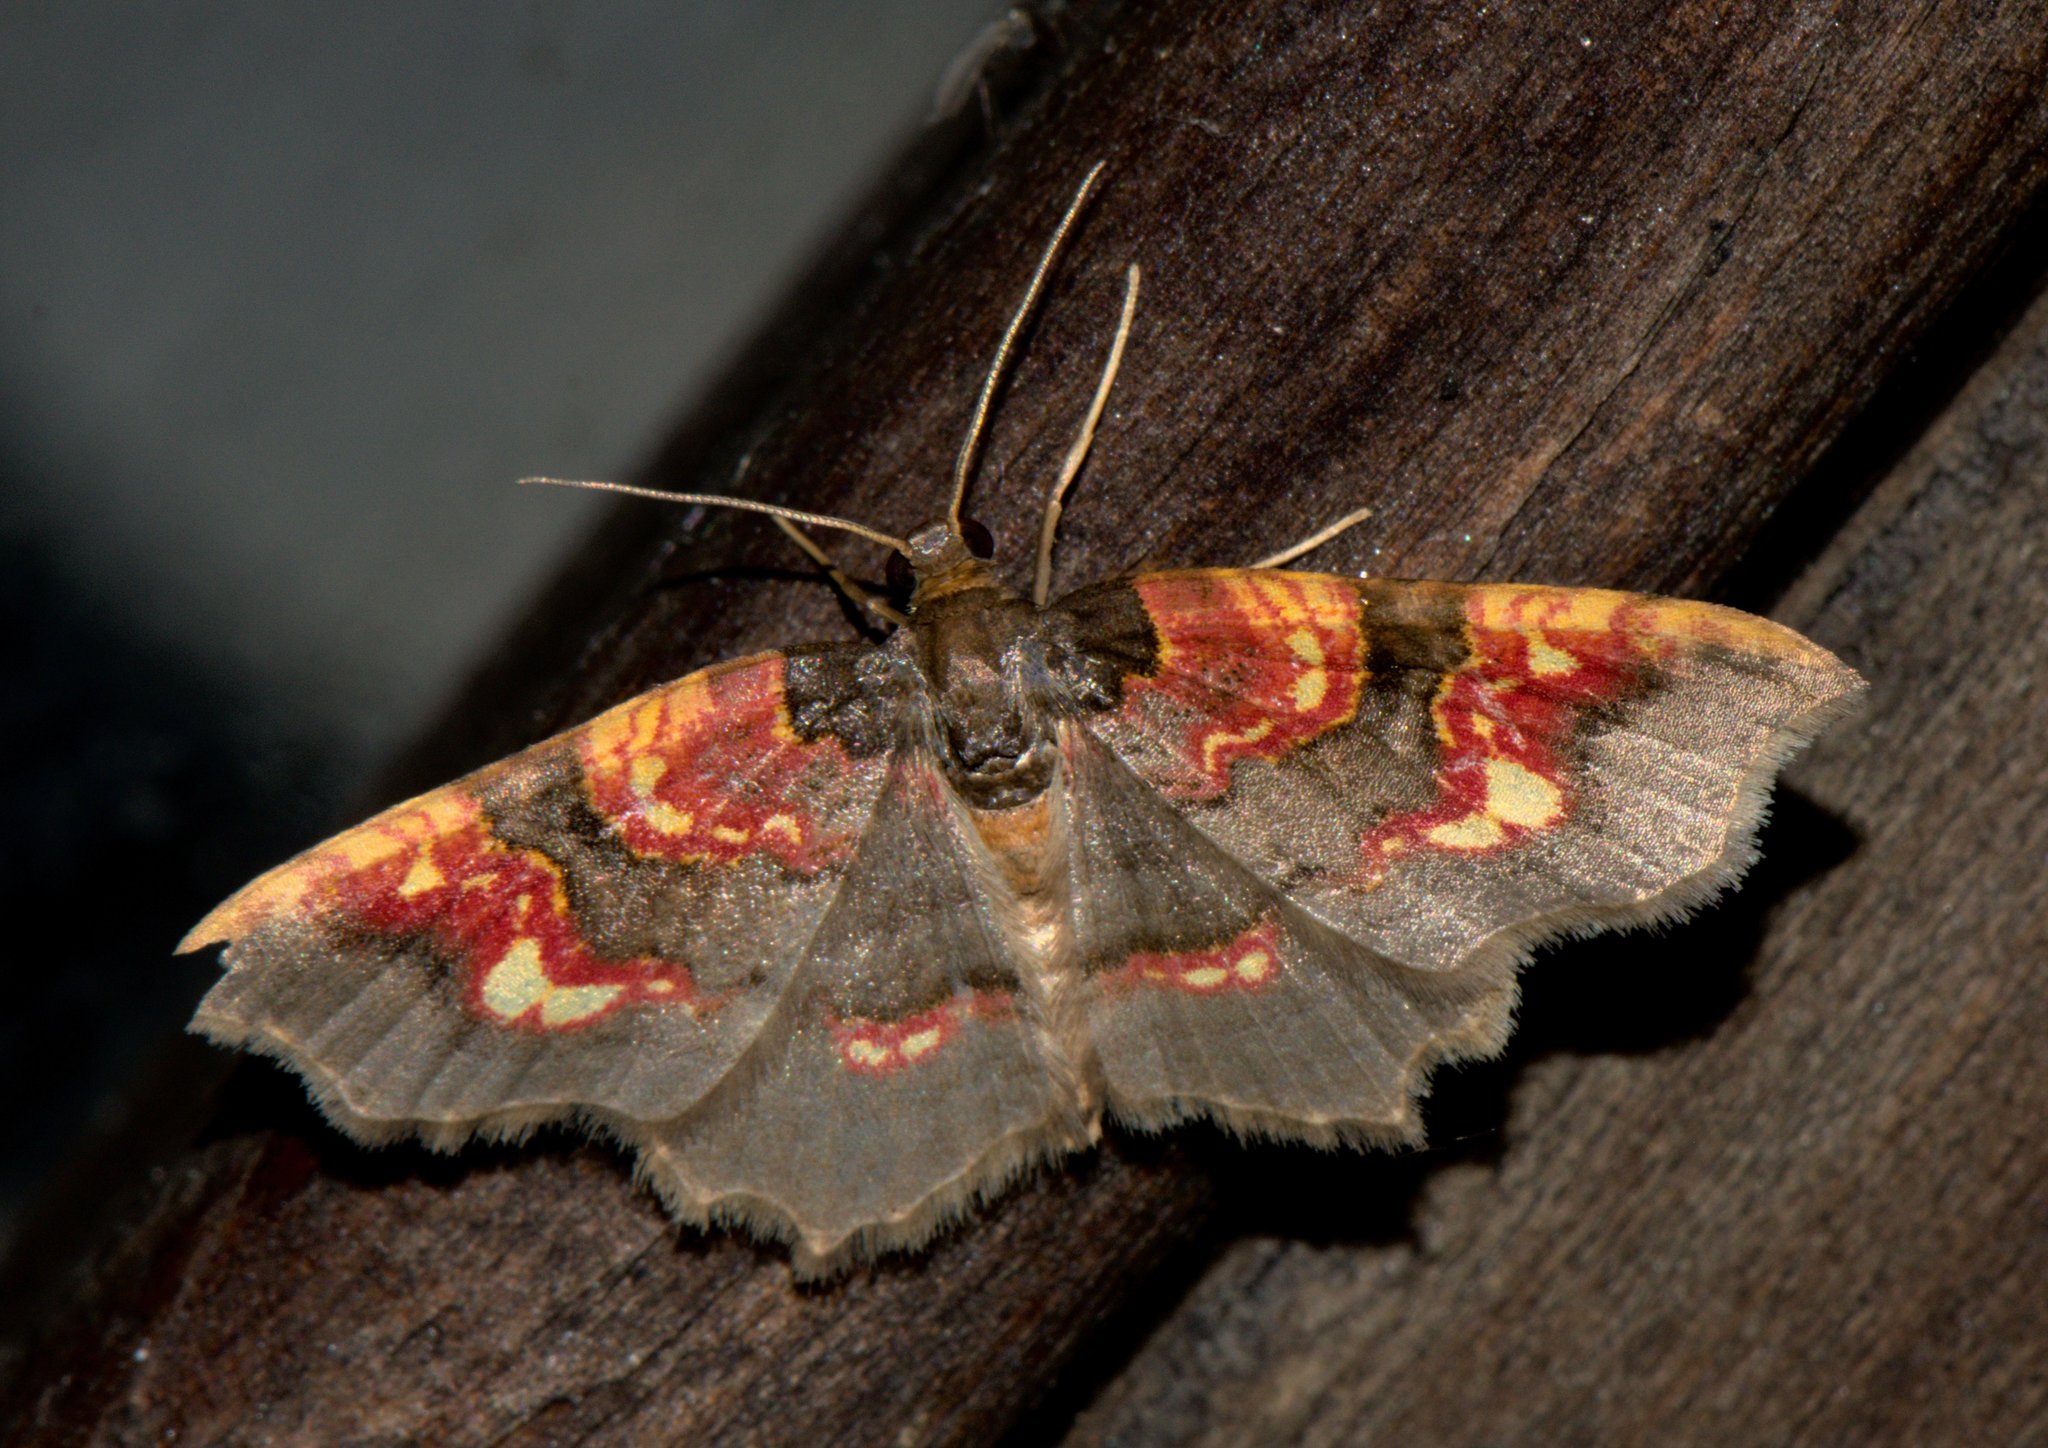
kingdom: Animalia
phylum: Arthropoda
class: Insecta
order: Lepidoptera
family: Geometridae
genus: Hydrelia
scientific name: Hydrelia ornata
